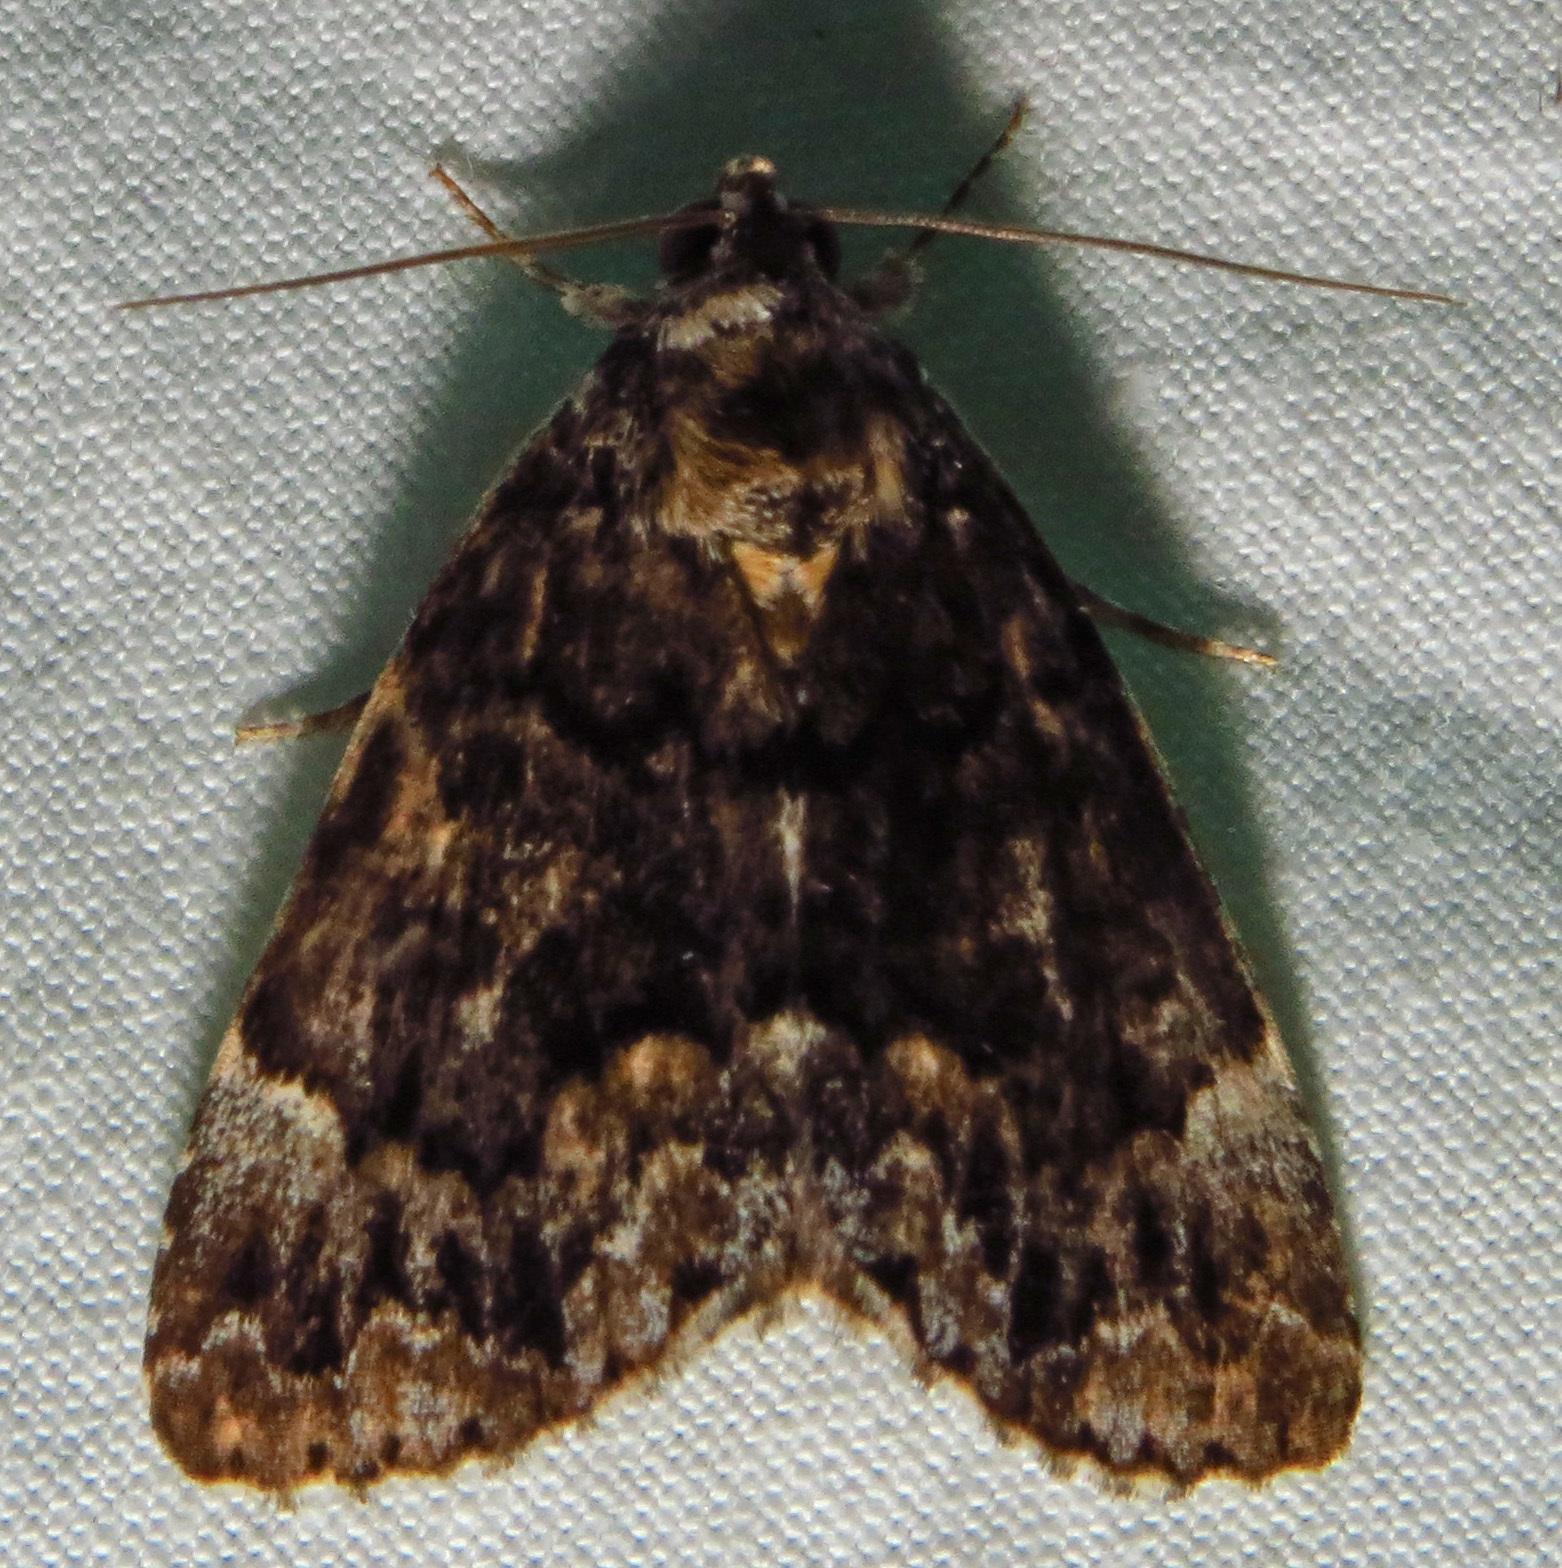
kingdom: Animalia
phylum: Arthropoda
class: Insecta
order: Lepidoptera
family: Erebidae
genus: Allotria
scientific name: Allotria elonympha
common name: False underwing
